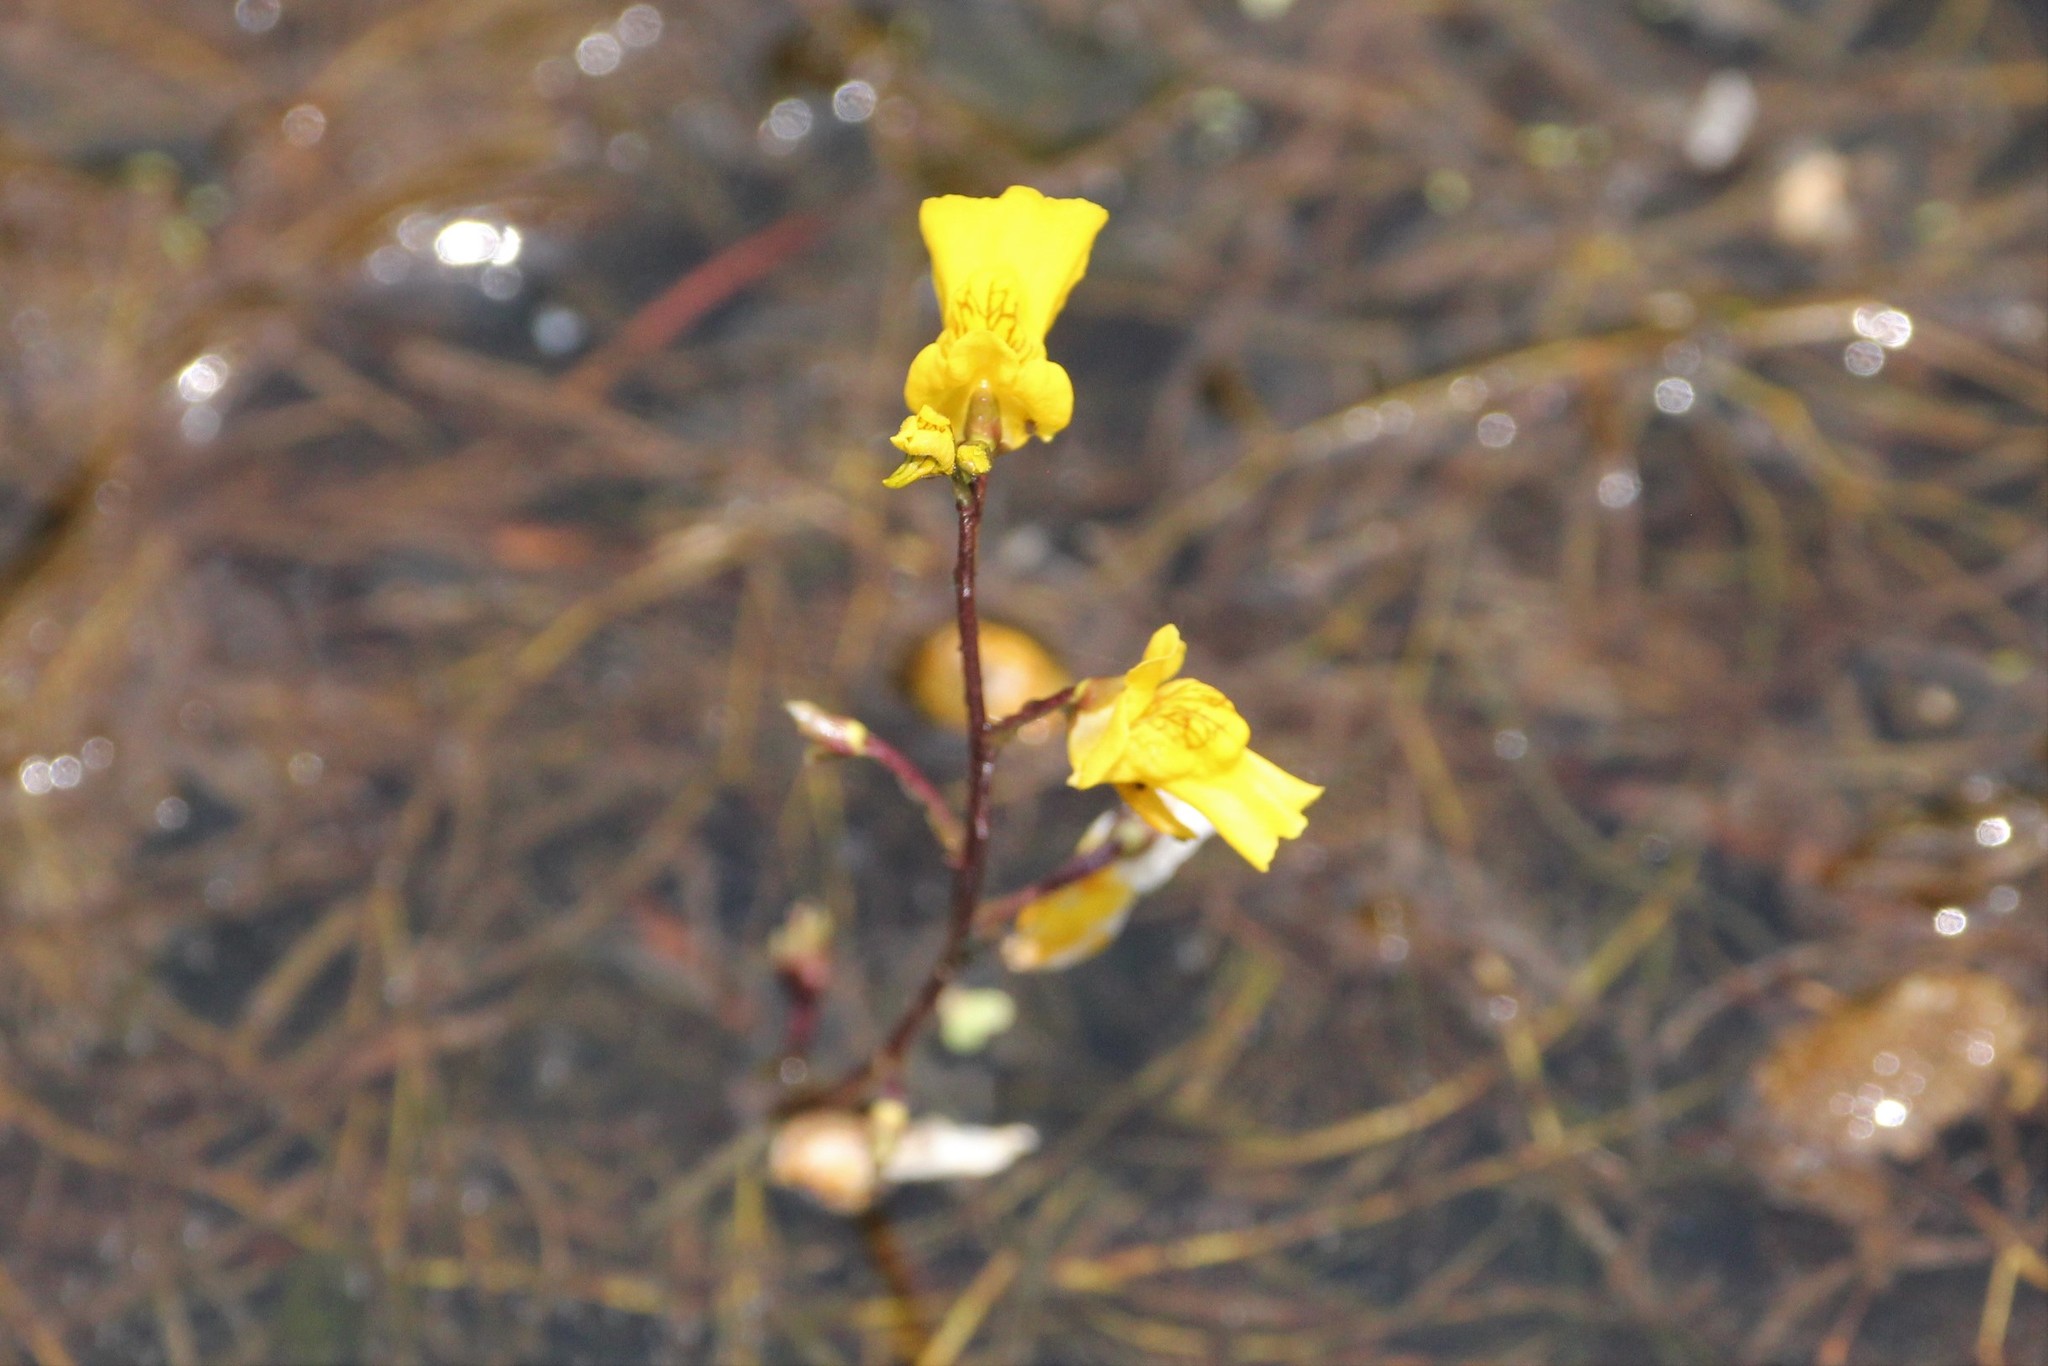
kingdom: Plantae
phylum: Tracheophyta
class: Magnoliopsida
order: Lamiales
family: Lentibulariaceae
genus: Utricularia
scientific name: Utricularia macrorhiza
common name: Common bladderwort
